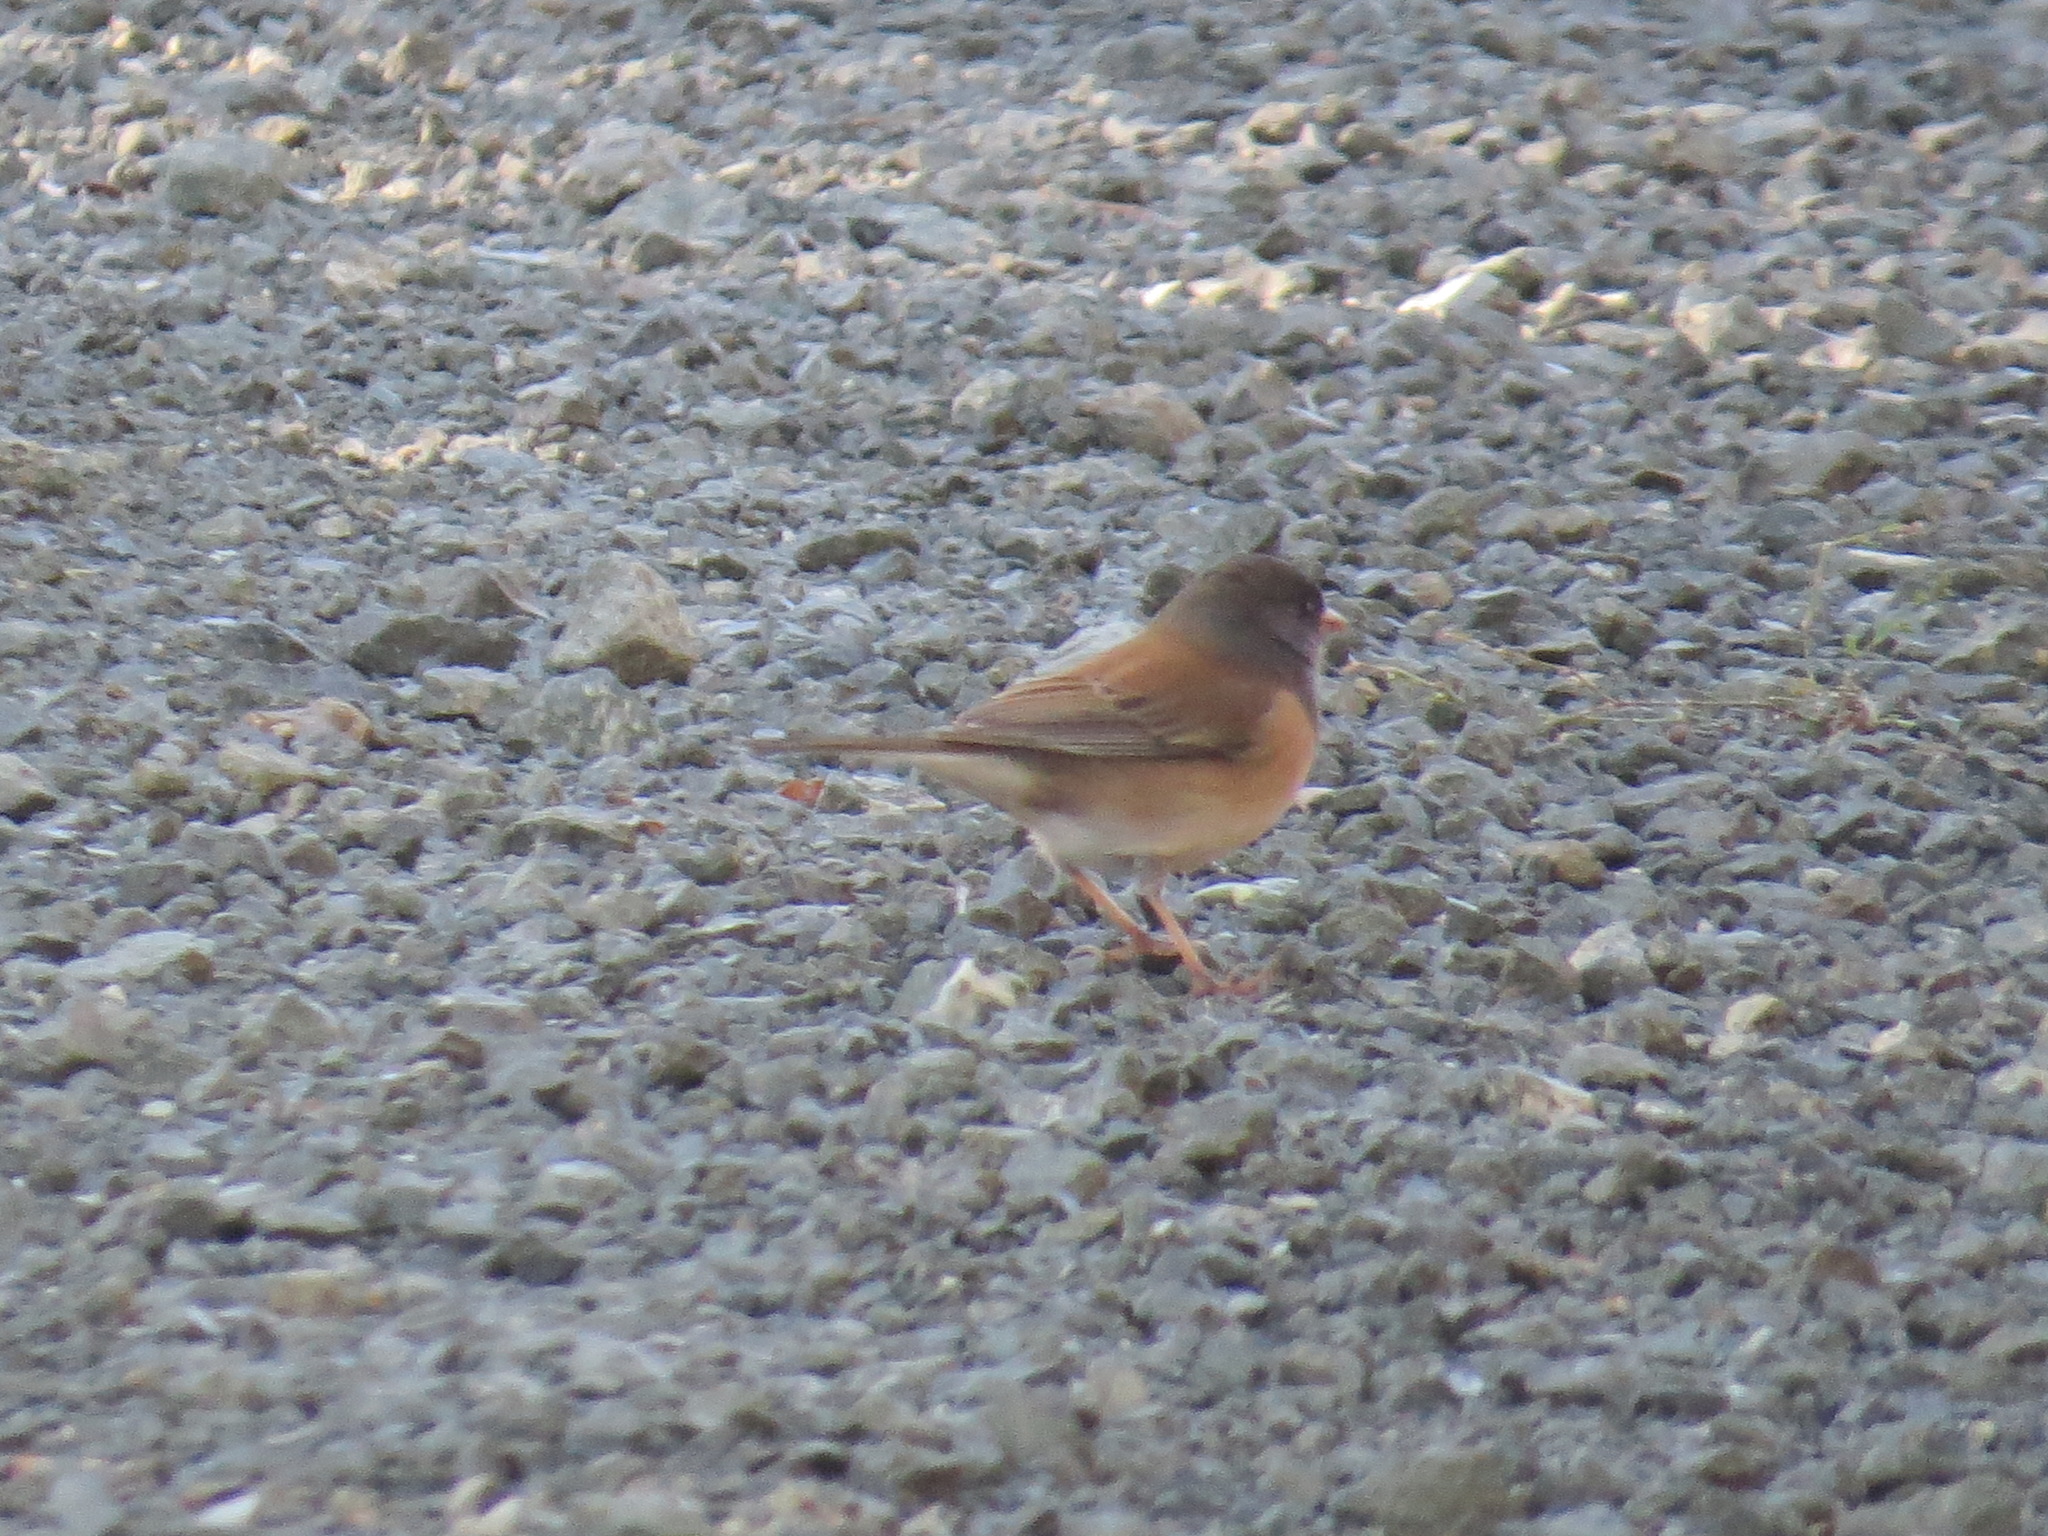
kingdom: Animalia
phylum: Chordata
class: Aves
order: Passeriformes
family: Passerellidae
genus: Junco
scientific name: Junco hyemalis
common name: Dark-eyed junco
